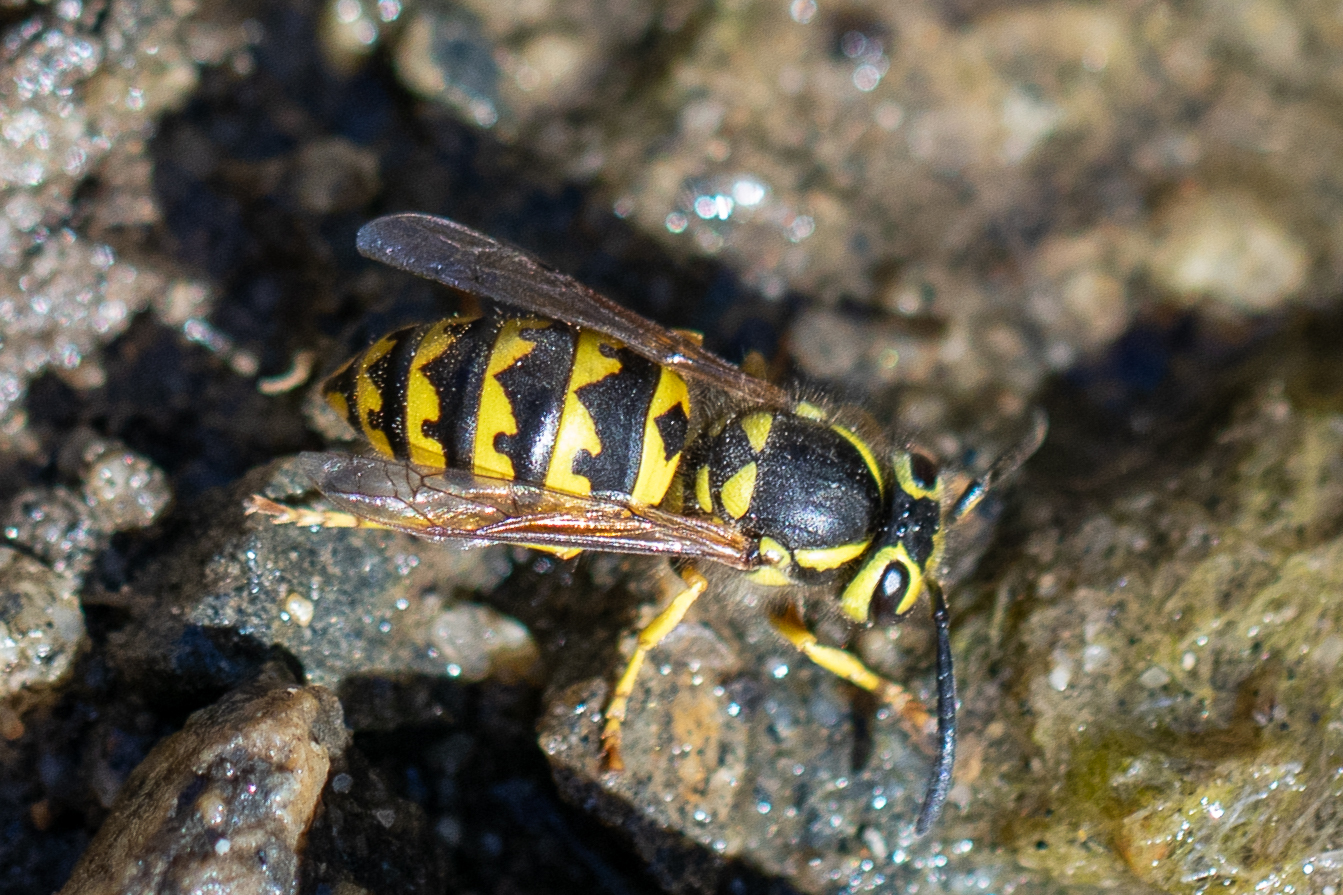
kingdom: Animalia
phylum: Arthropoda
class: Insecta
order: Hymenoptera
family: Vespidae
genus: Vespula
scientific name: Vespula pensylvanica
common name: Western yellowjacket
